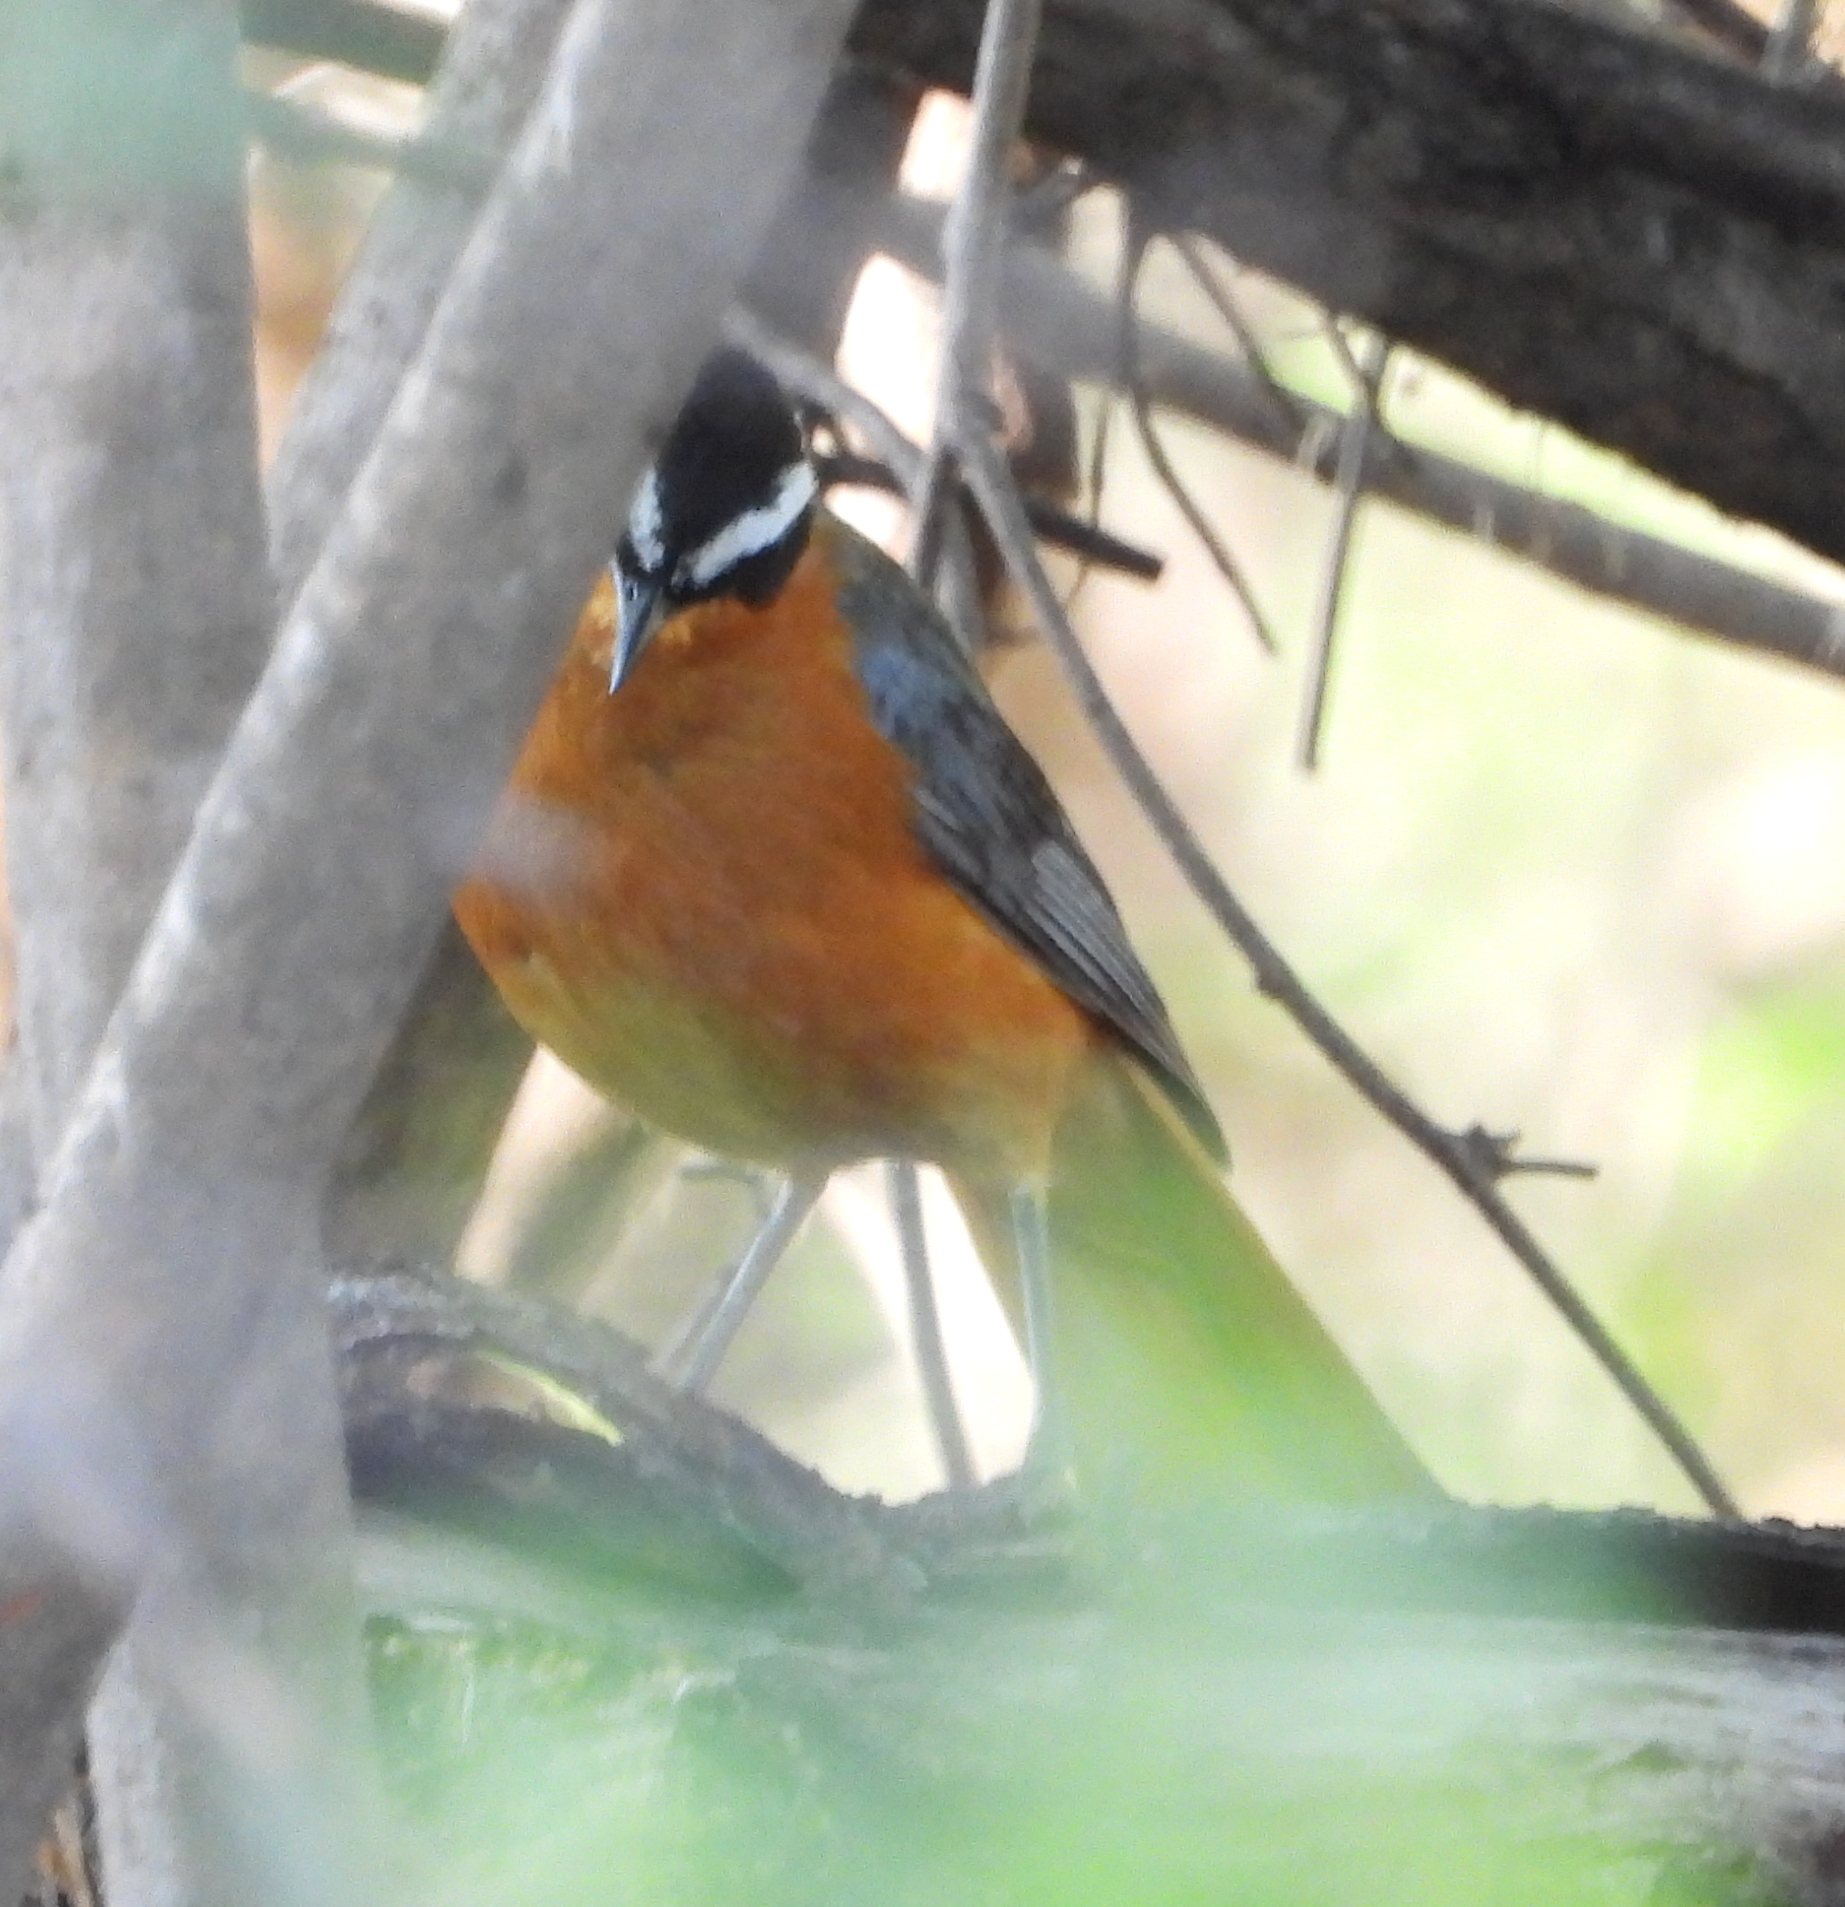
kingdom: Animalia
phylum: Chordata
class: Aves
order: Passeriformes
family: Muscicapidae
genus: Cossypha
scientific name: Cossypha heuglini
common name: White-browed robin-chat
